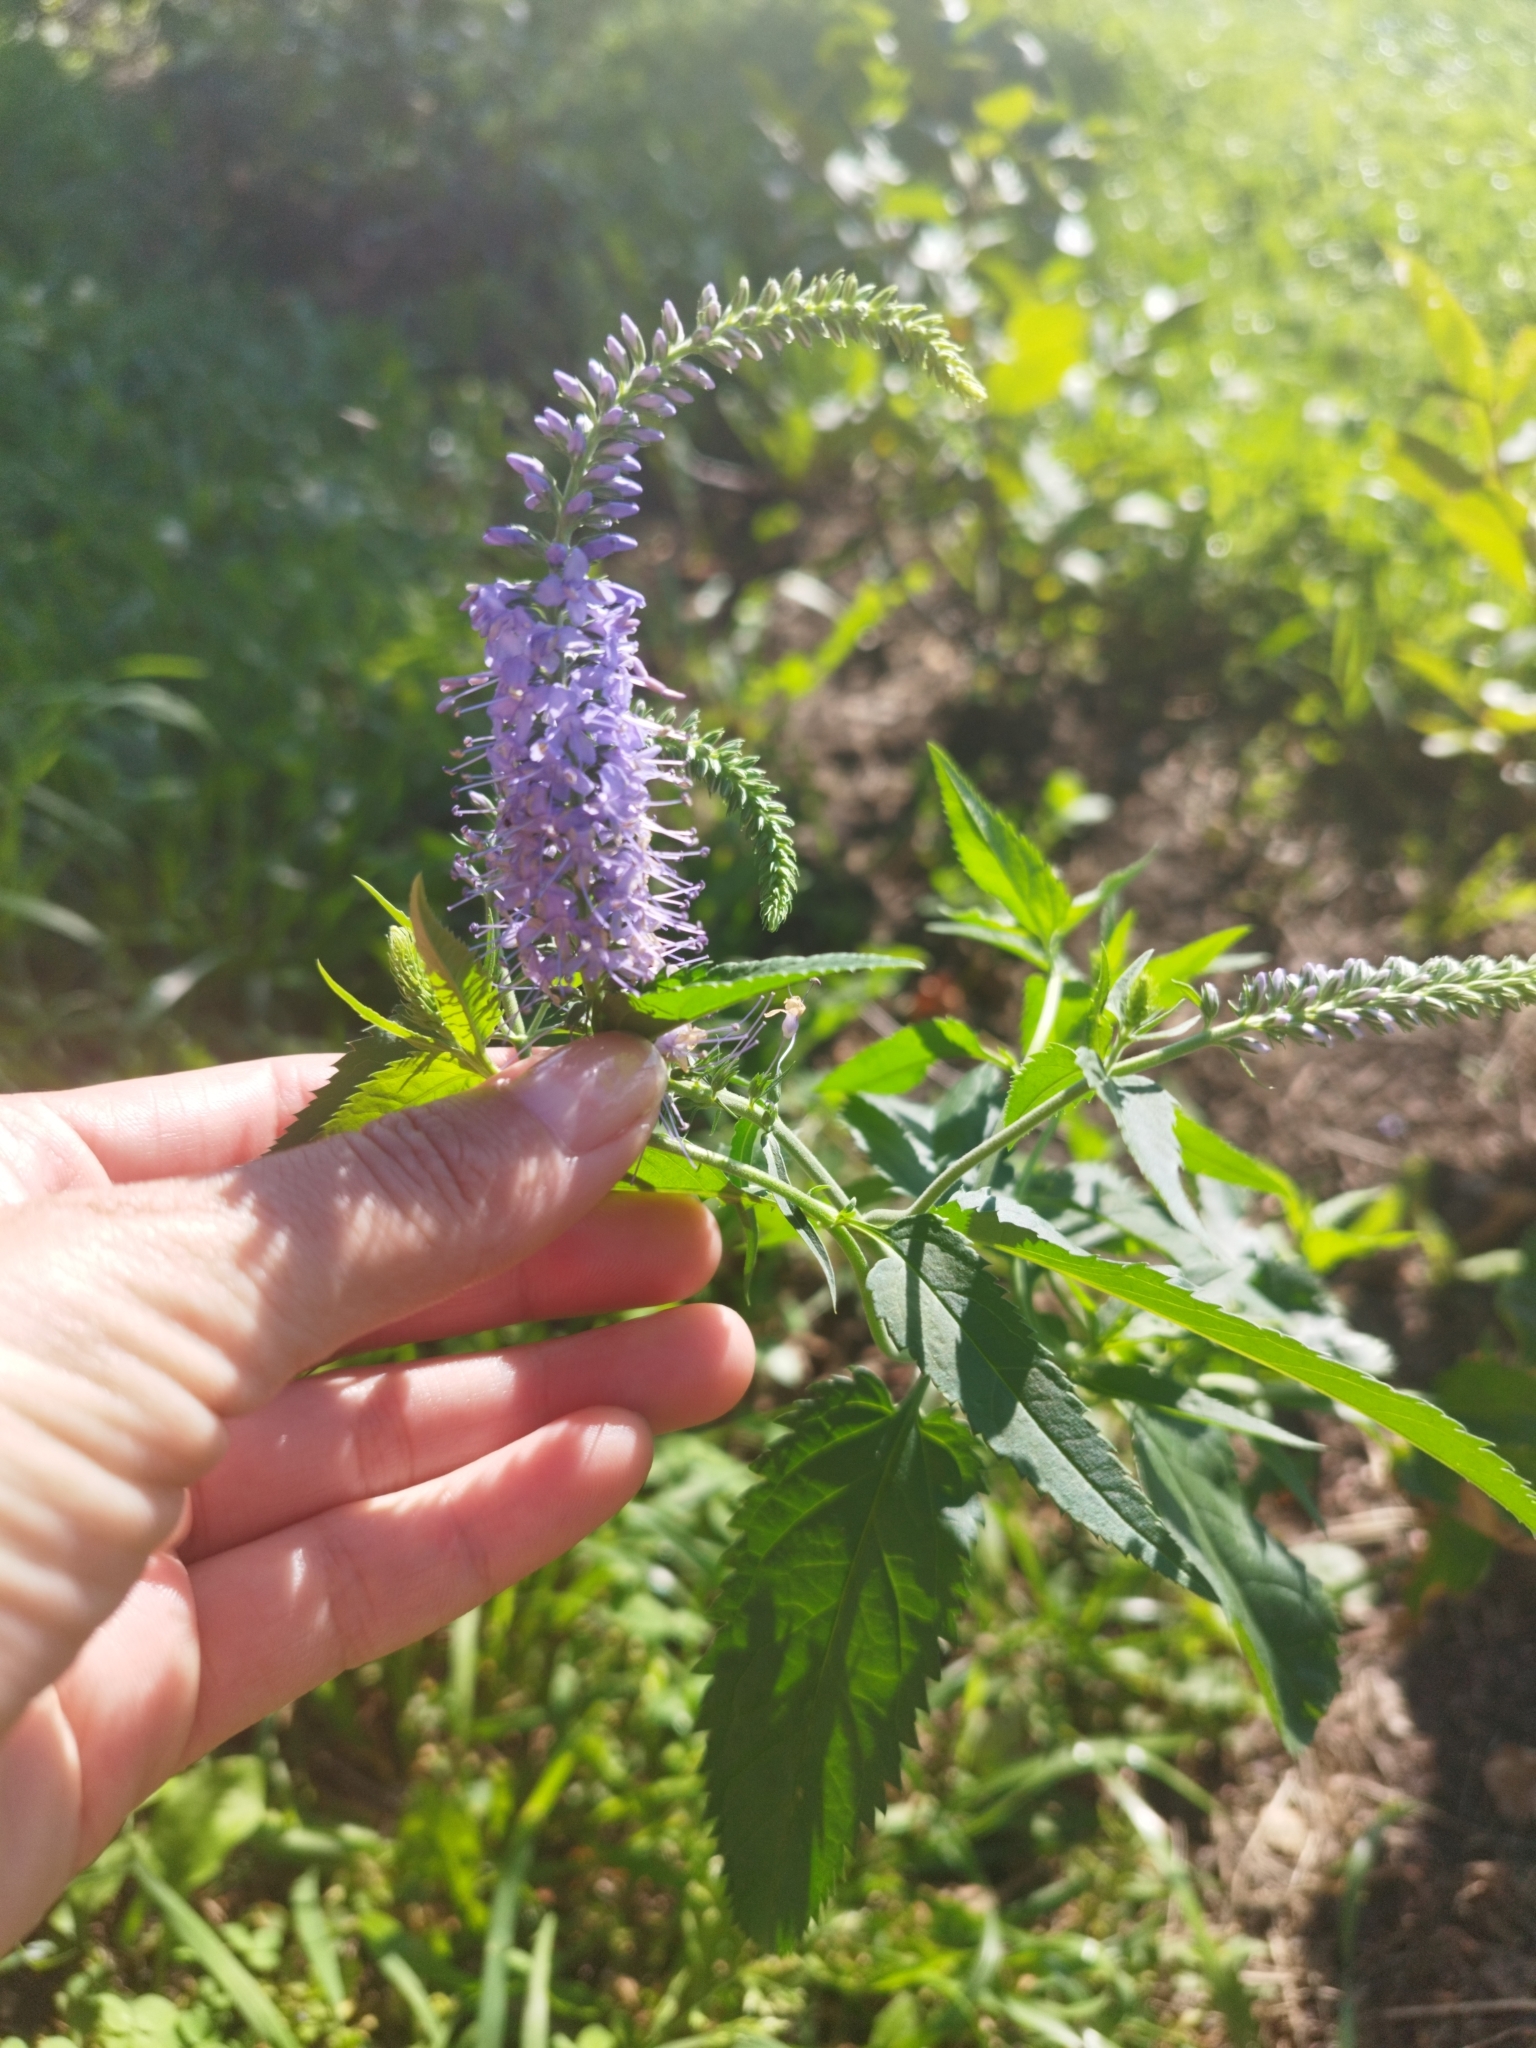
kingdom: Plantae
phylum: Tracheophyta
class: Magnoliopsida
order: Lamiales
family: Plantaginaceae
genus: Veronica
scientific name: Veronica longifolia
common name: Garden speedwell
